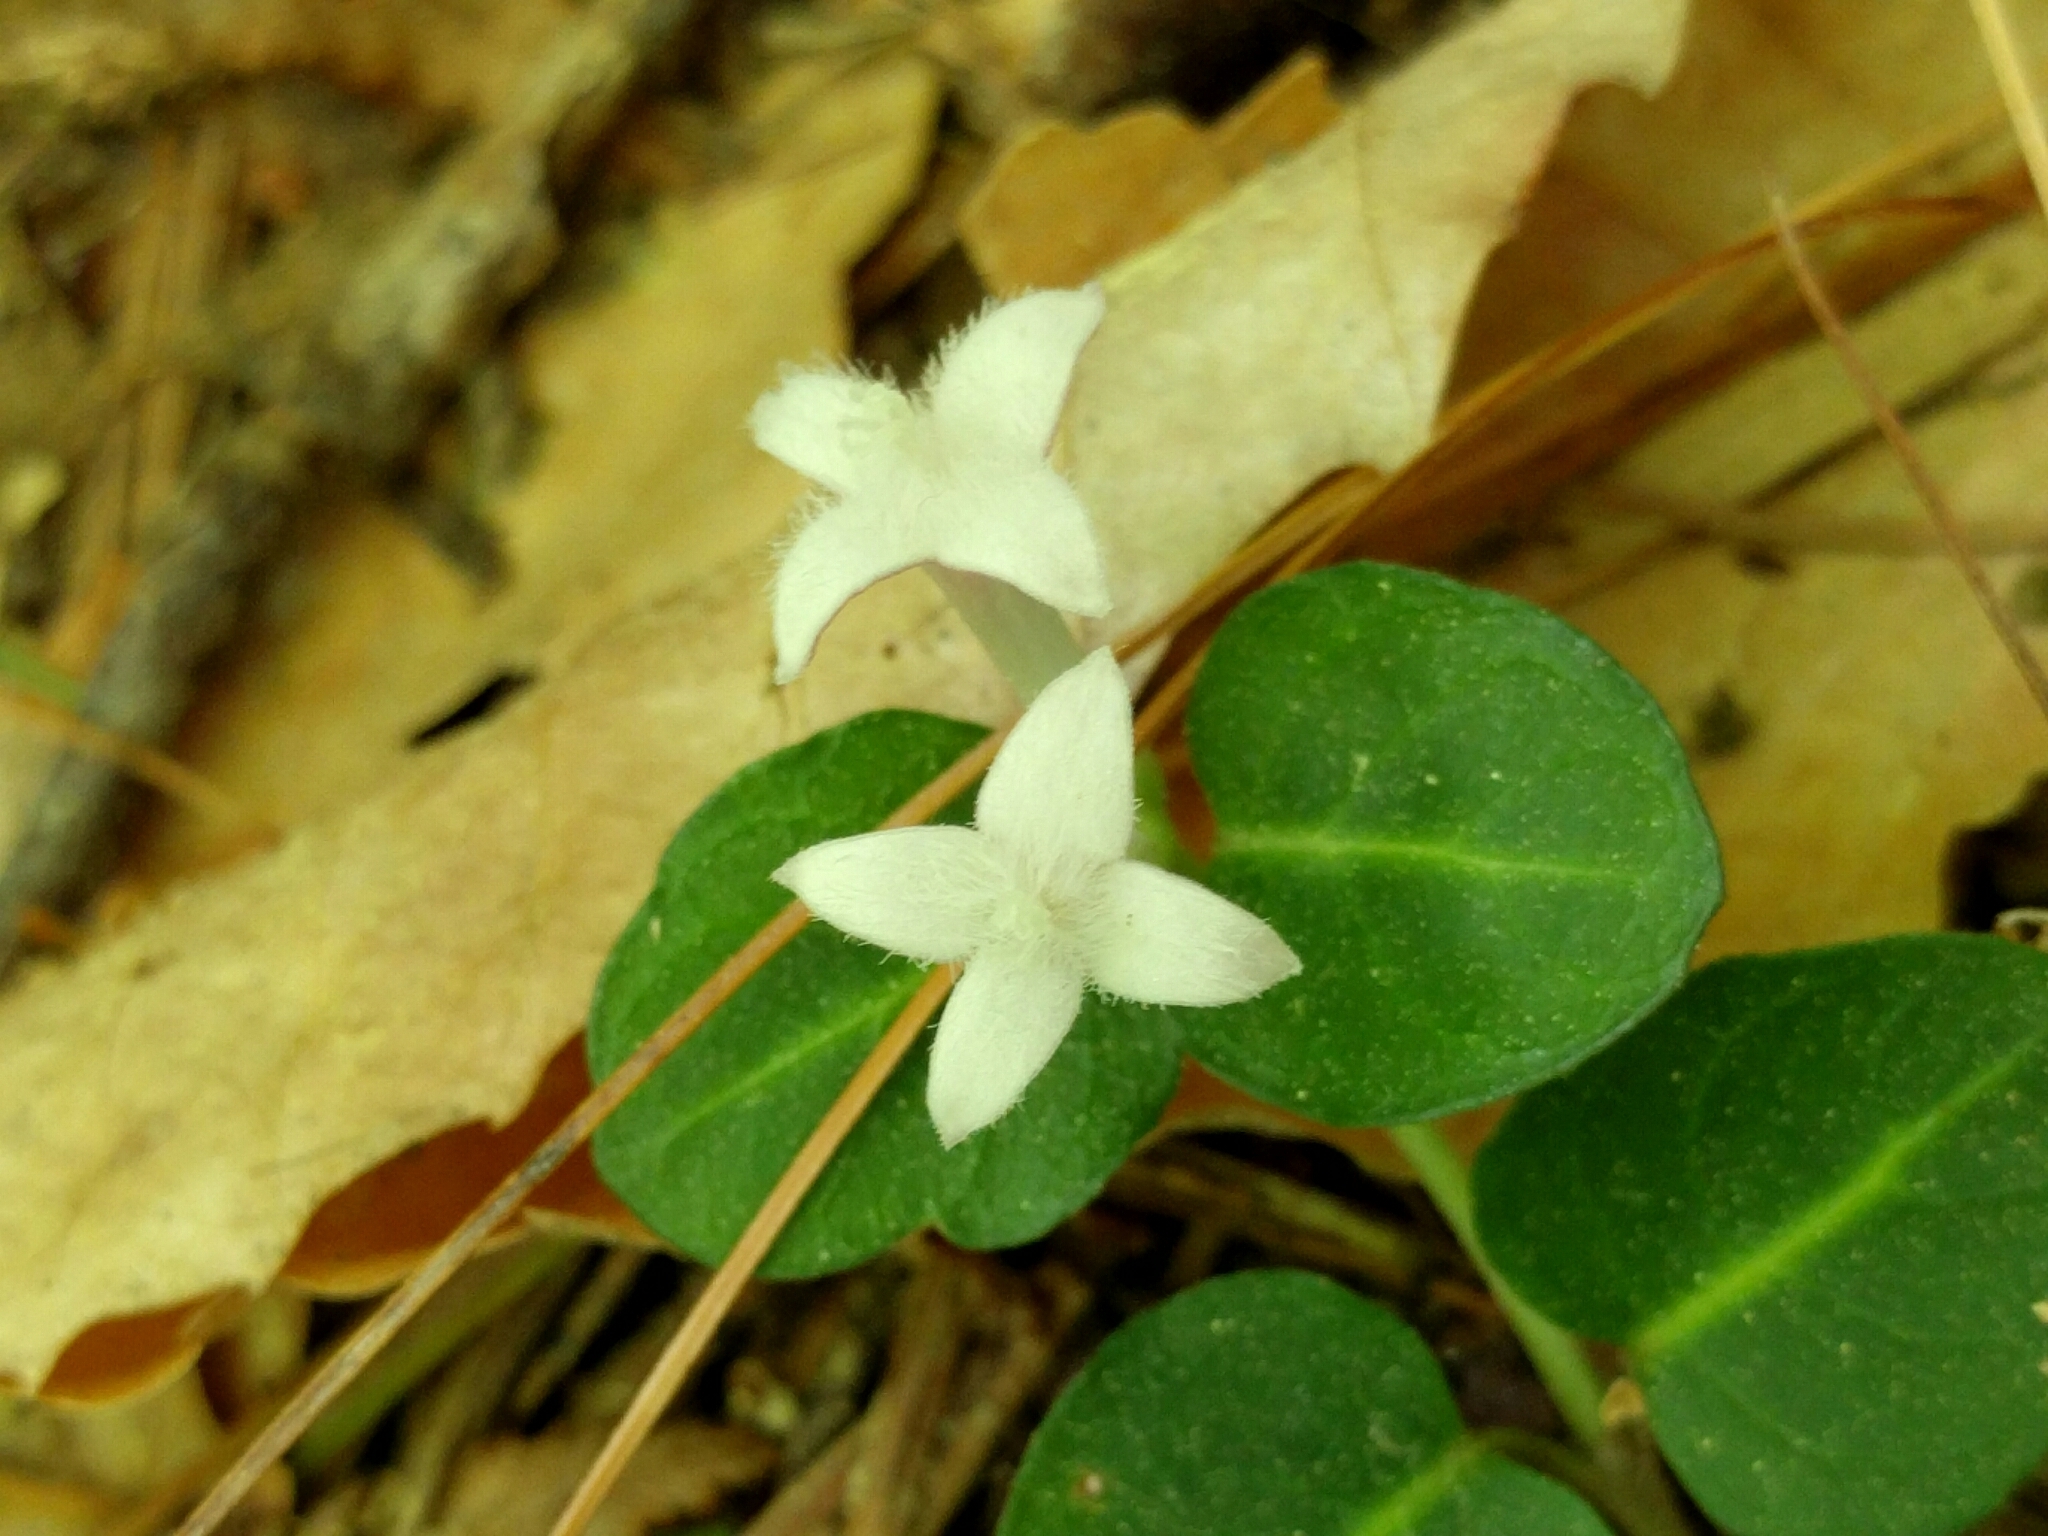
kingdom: Plantae
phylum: Tracheophyta
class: Magnoliopsida
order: Gentianales
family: Rubiaceae
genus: Mitchella
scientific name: Mitchella repens
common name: Partridge-berry
